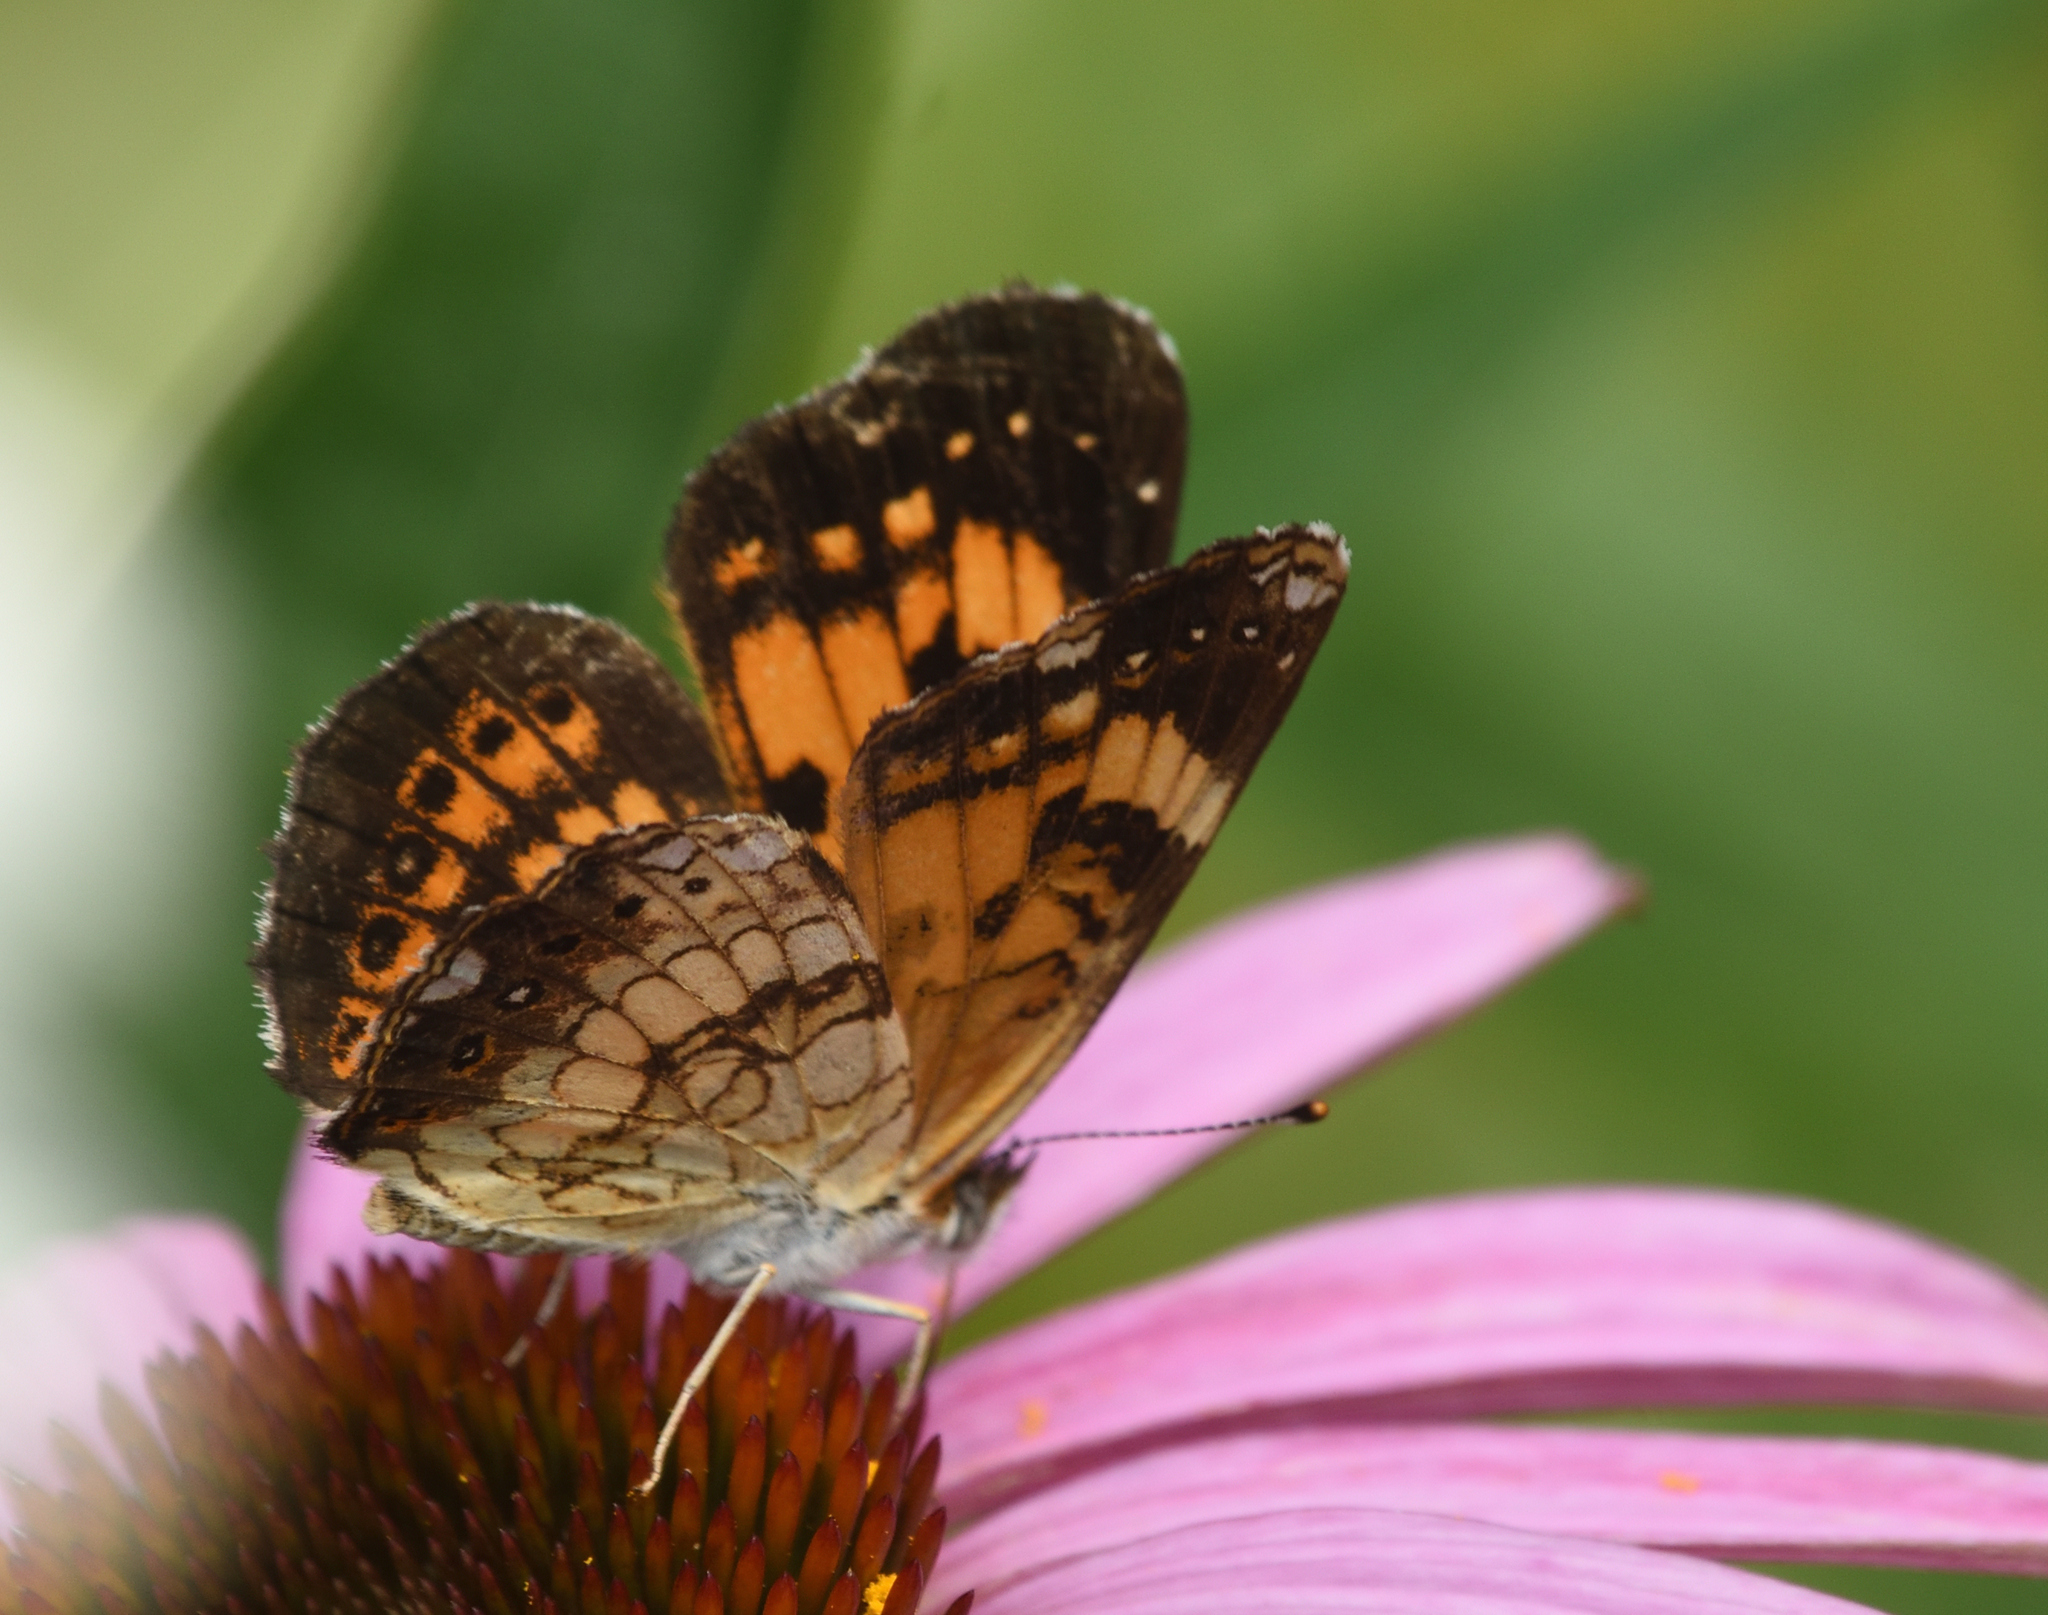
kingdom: Animalia
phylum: Arthropoda
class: Insecta
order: Lepidoptera
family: Nymphalidae
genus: Chlosyne
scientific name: Chlosyne nycteis
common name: Silvery checkerspot
